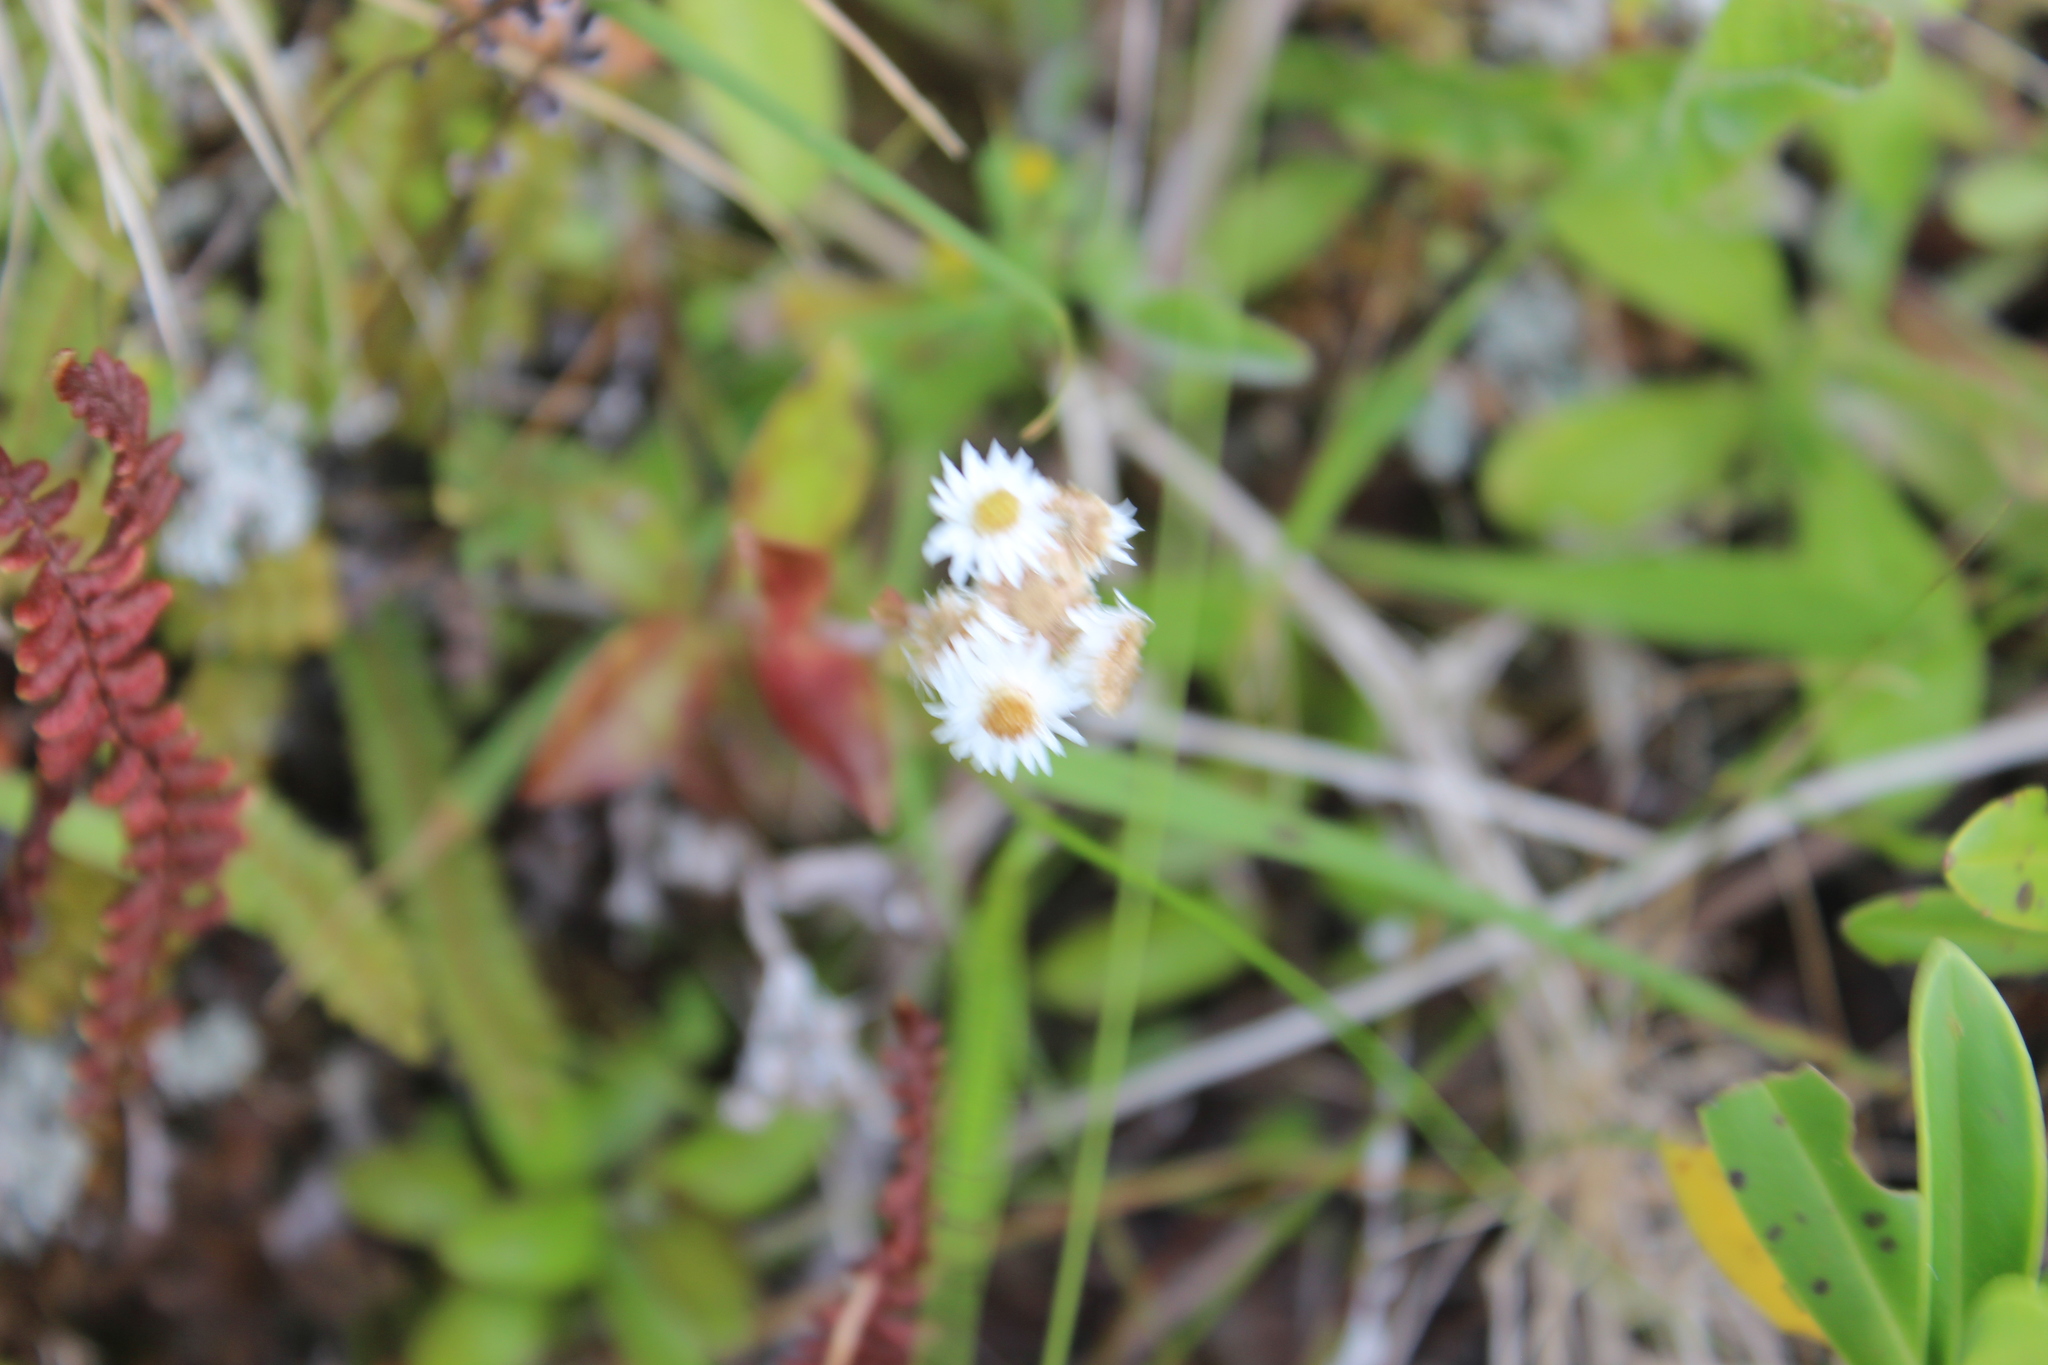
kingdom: Plantae
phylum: Tracheophyta
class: Magnoliopsida
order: Asterales
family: Asteraceae
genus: Anaphalioides
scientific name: Anaphalioides trinervis
